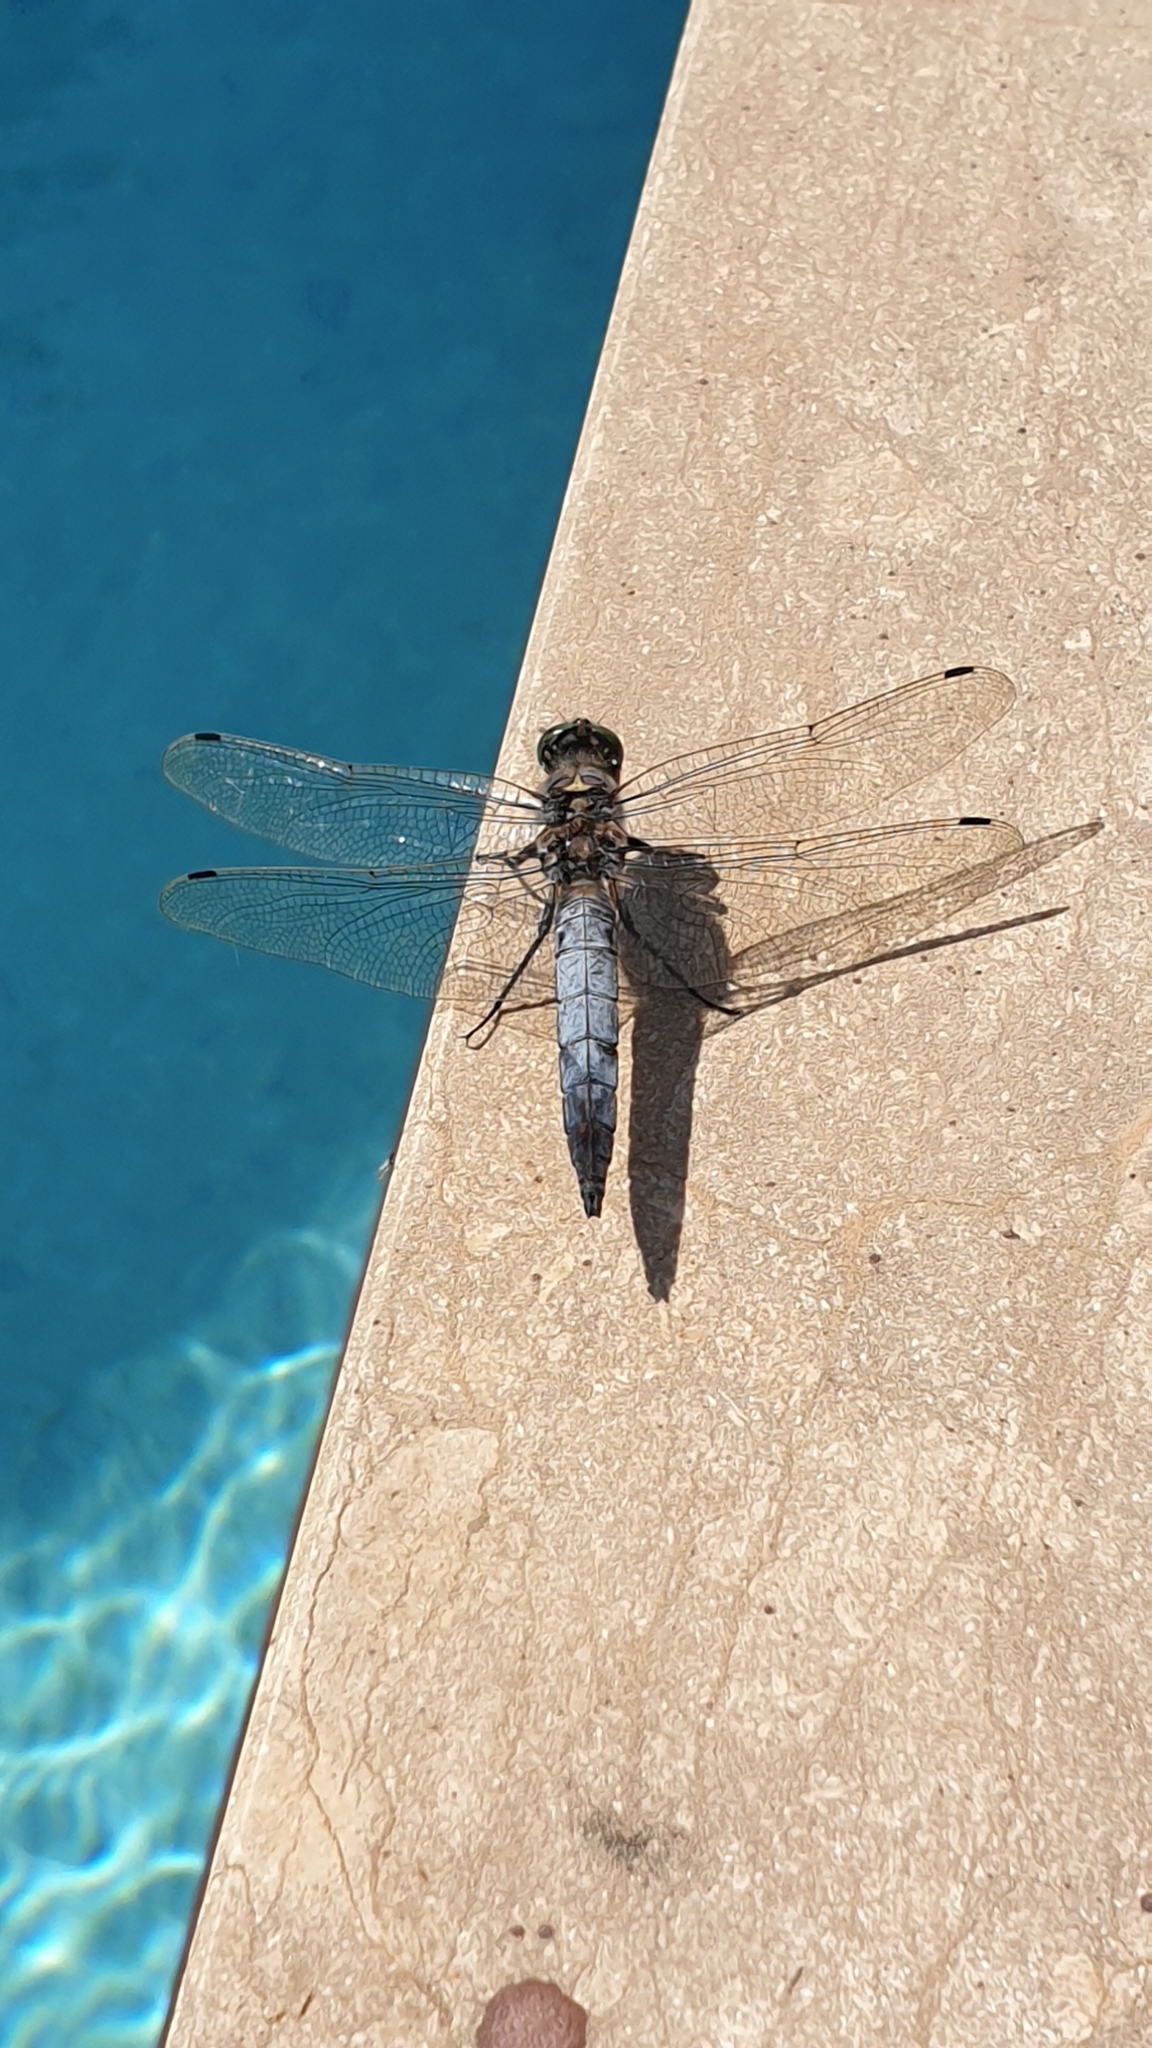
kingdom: Animalia
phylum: Arthropoda
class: Insecta
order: Odonata
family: Libellulidae
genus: Orthetrum
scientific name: Orthetrum cancellatum
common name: Black-tailed skimmer
